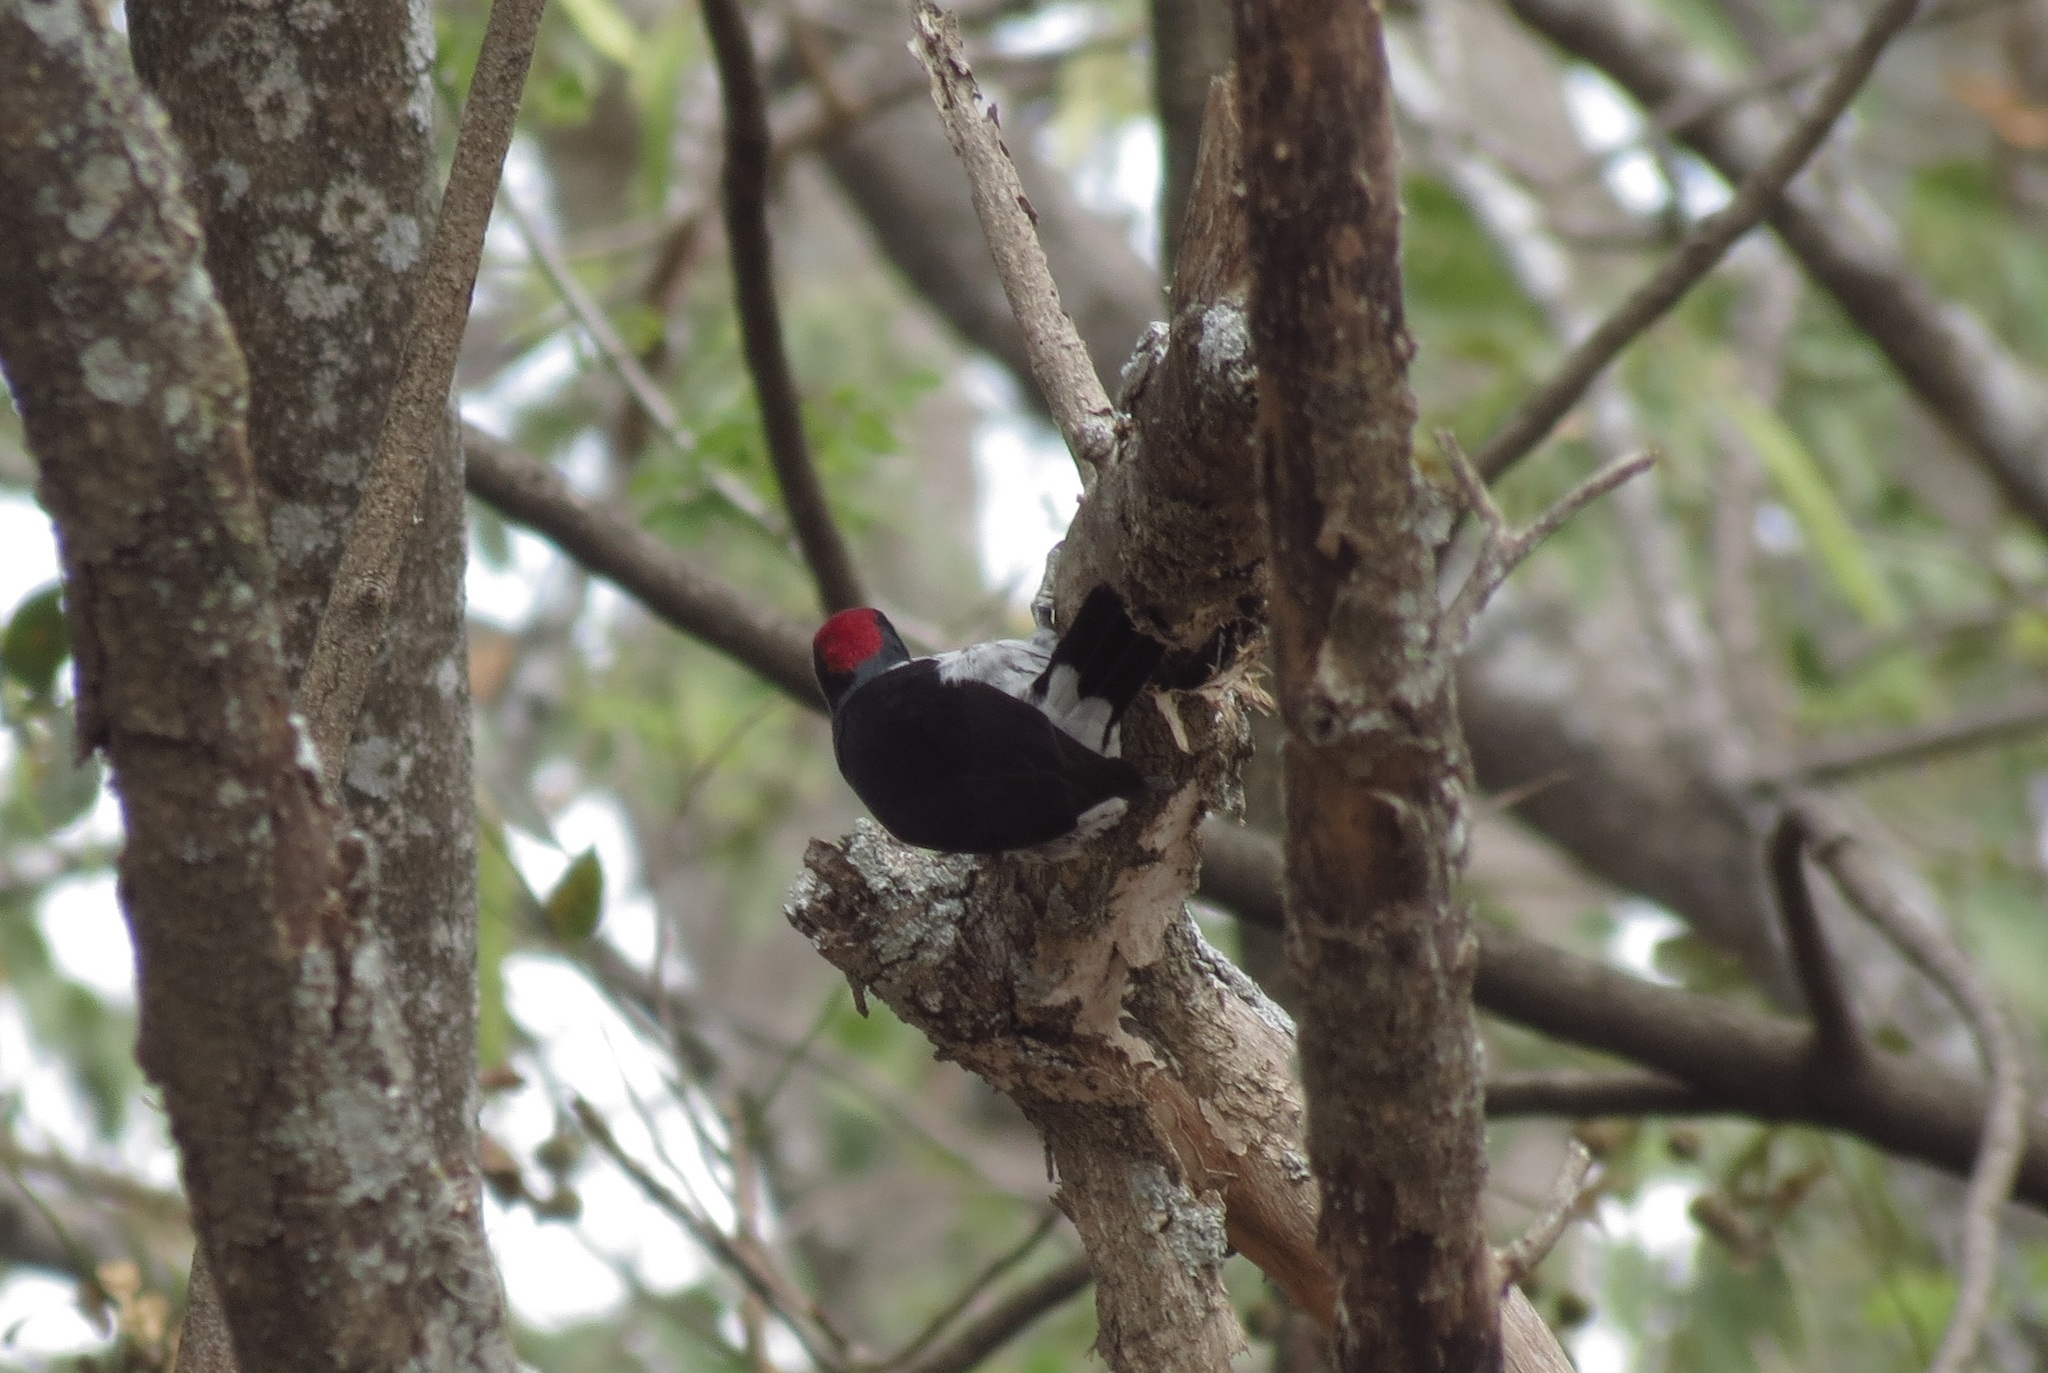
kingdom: Animalia
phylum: Chordata
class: Aves
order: Piciformes
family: Picidae
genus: Melanerpes
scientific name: Melanerpes formicivorus
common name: Acorn woodpecker
